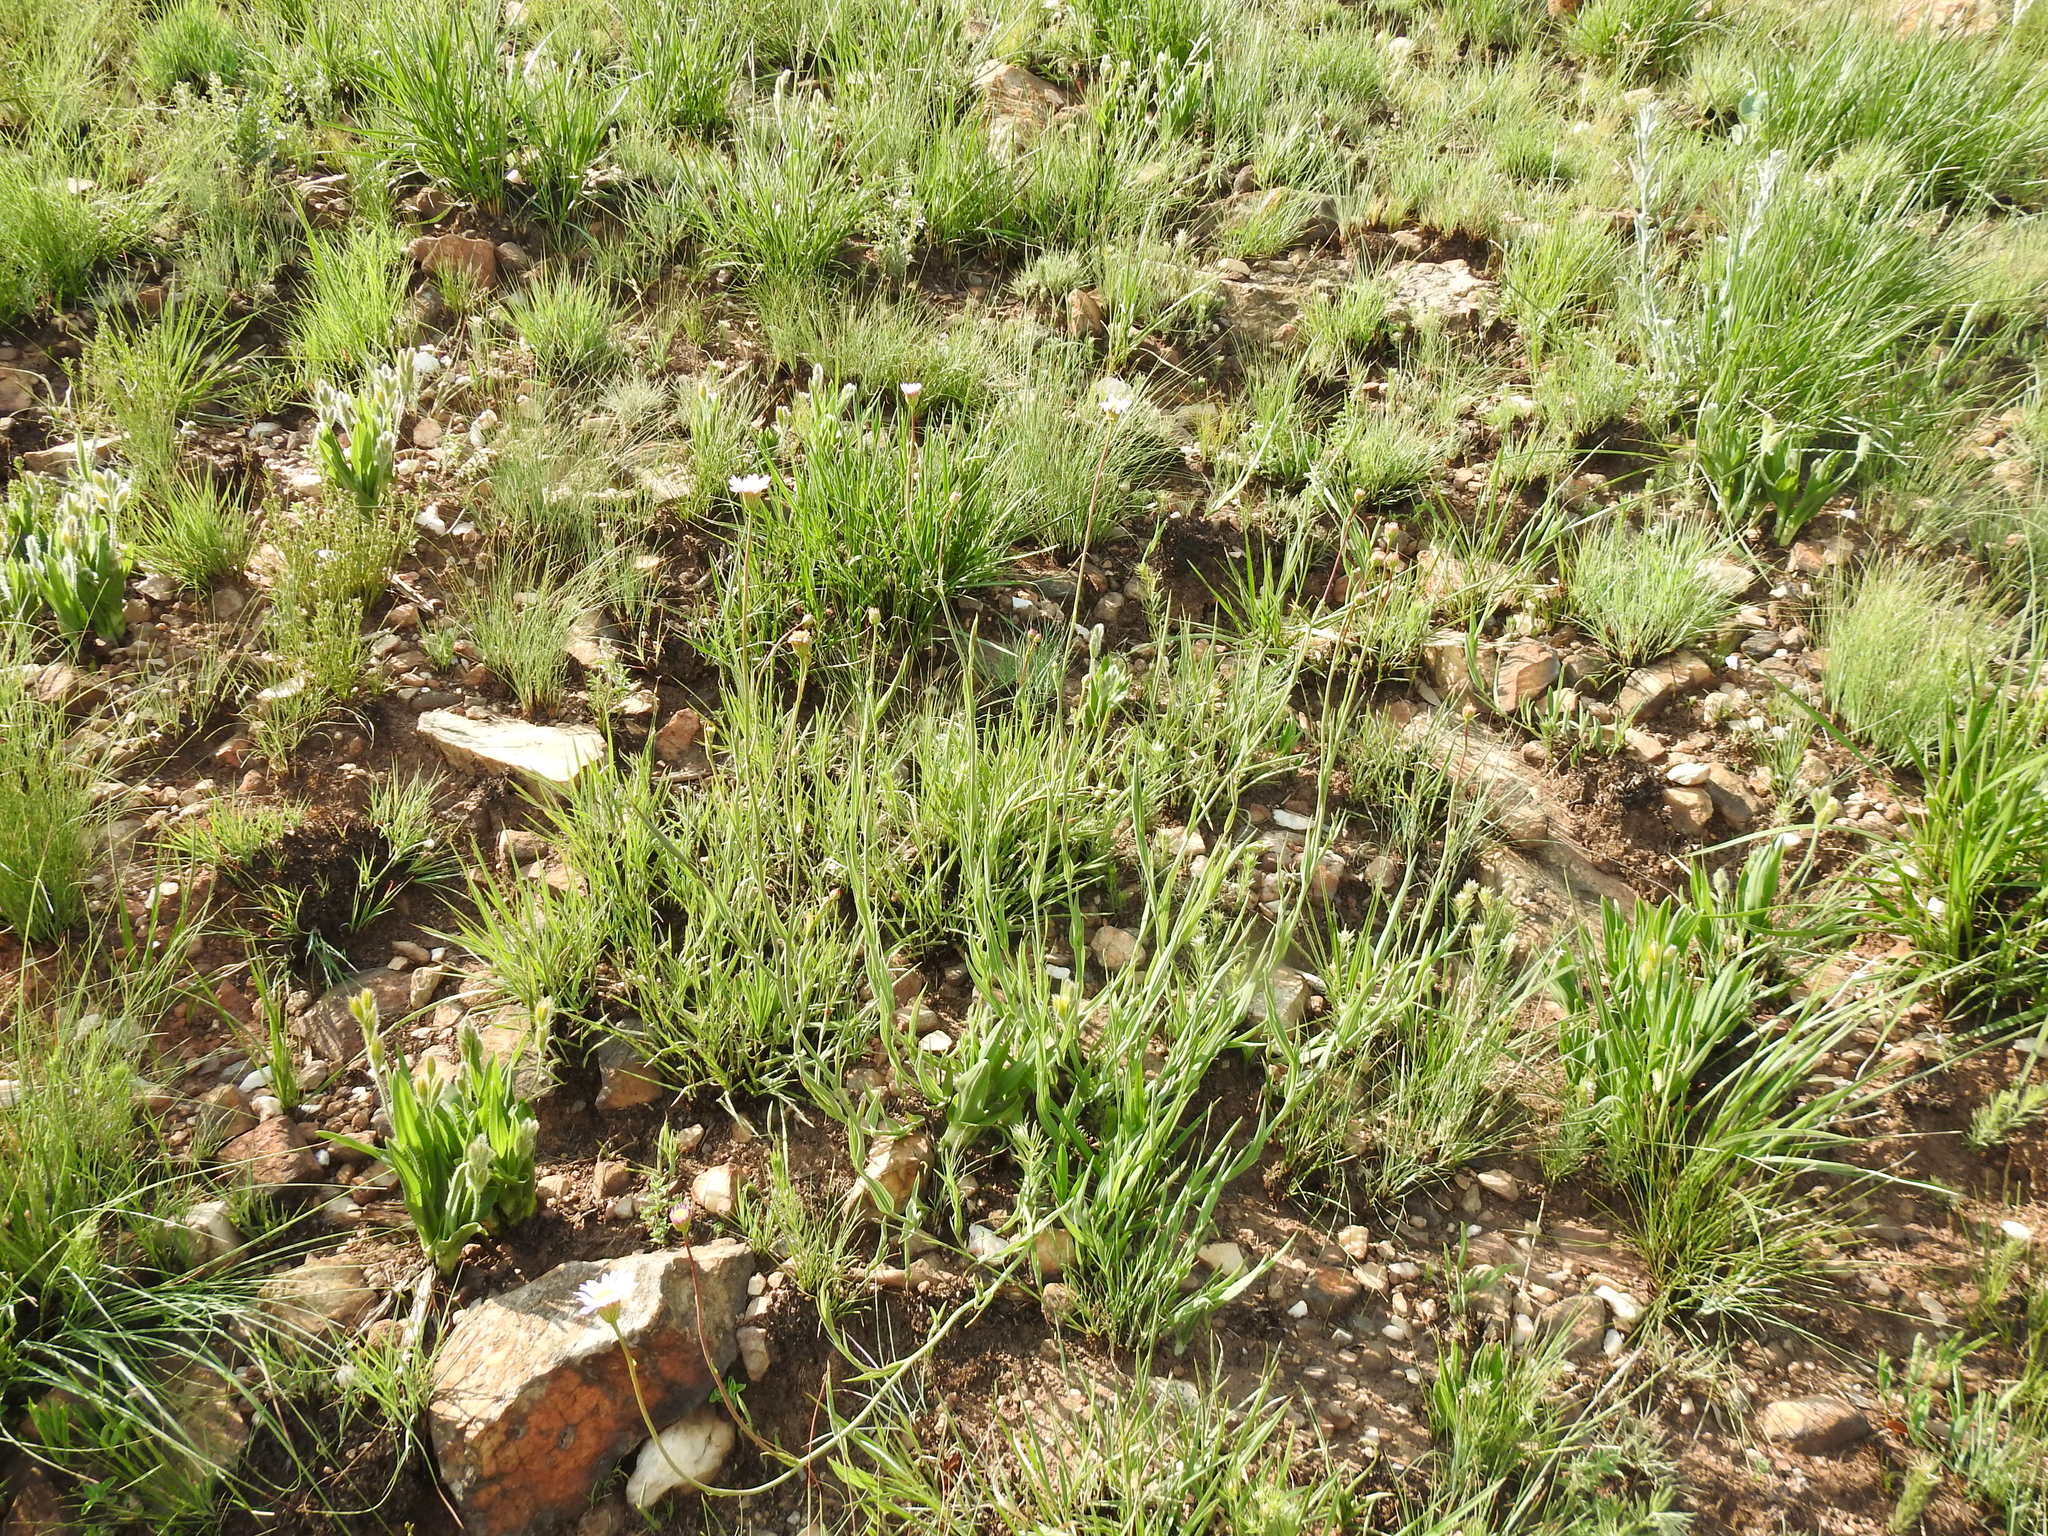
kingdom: Plantae
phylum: Tracheophyta
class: Magnoliopsida
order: Asterales
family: Asteraceae
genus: Afroaster
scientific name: Afroaster serrulatus
